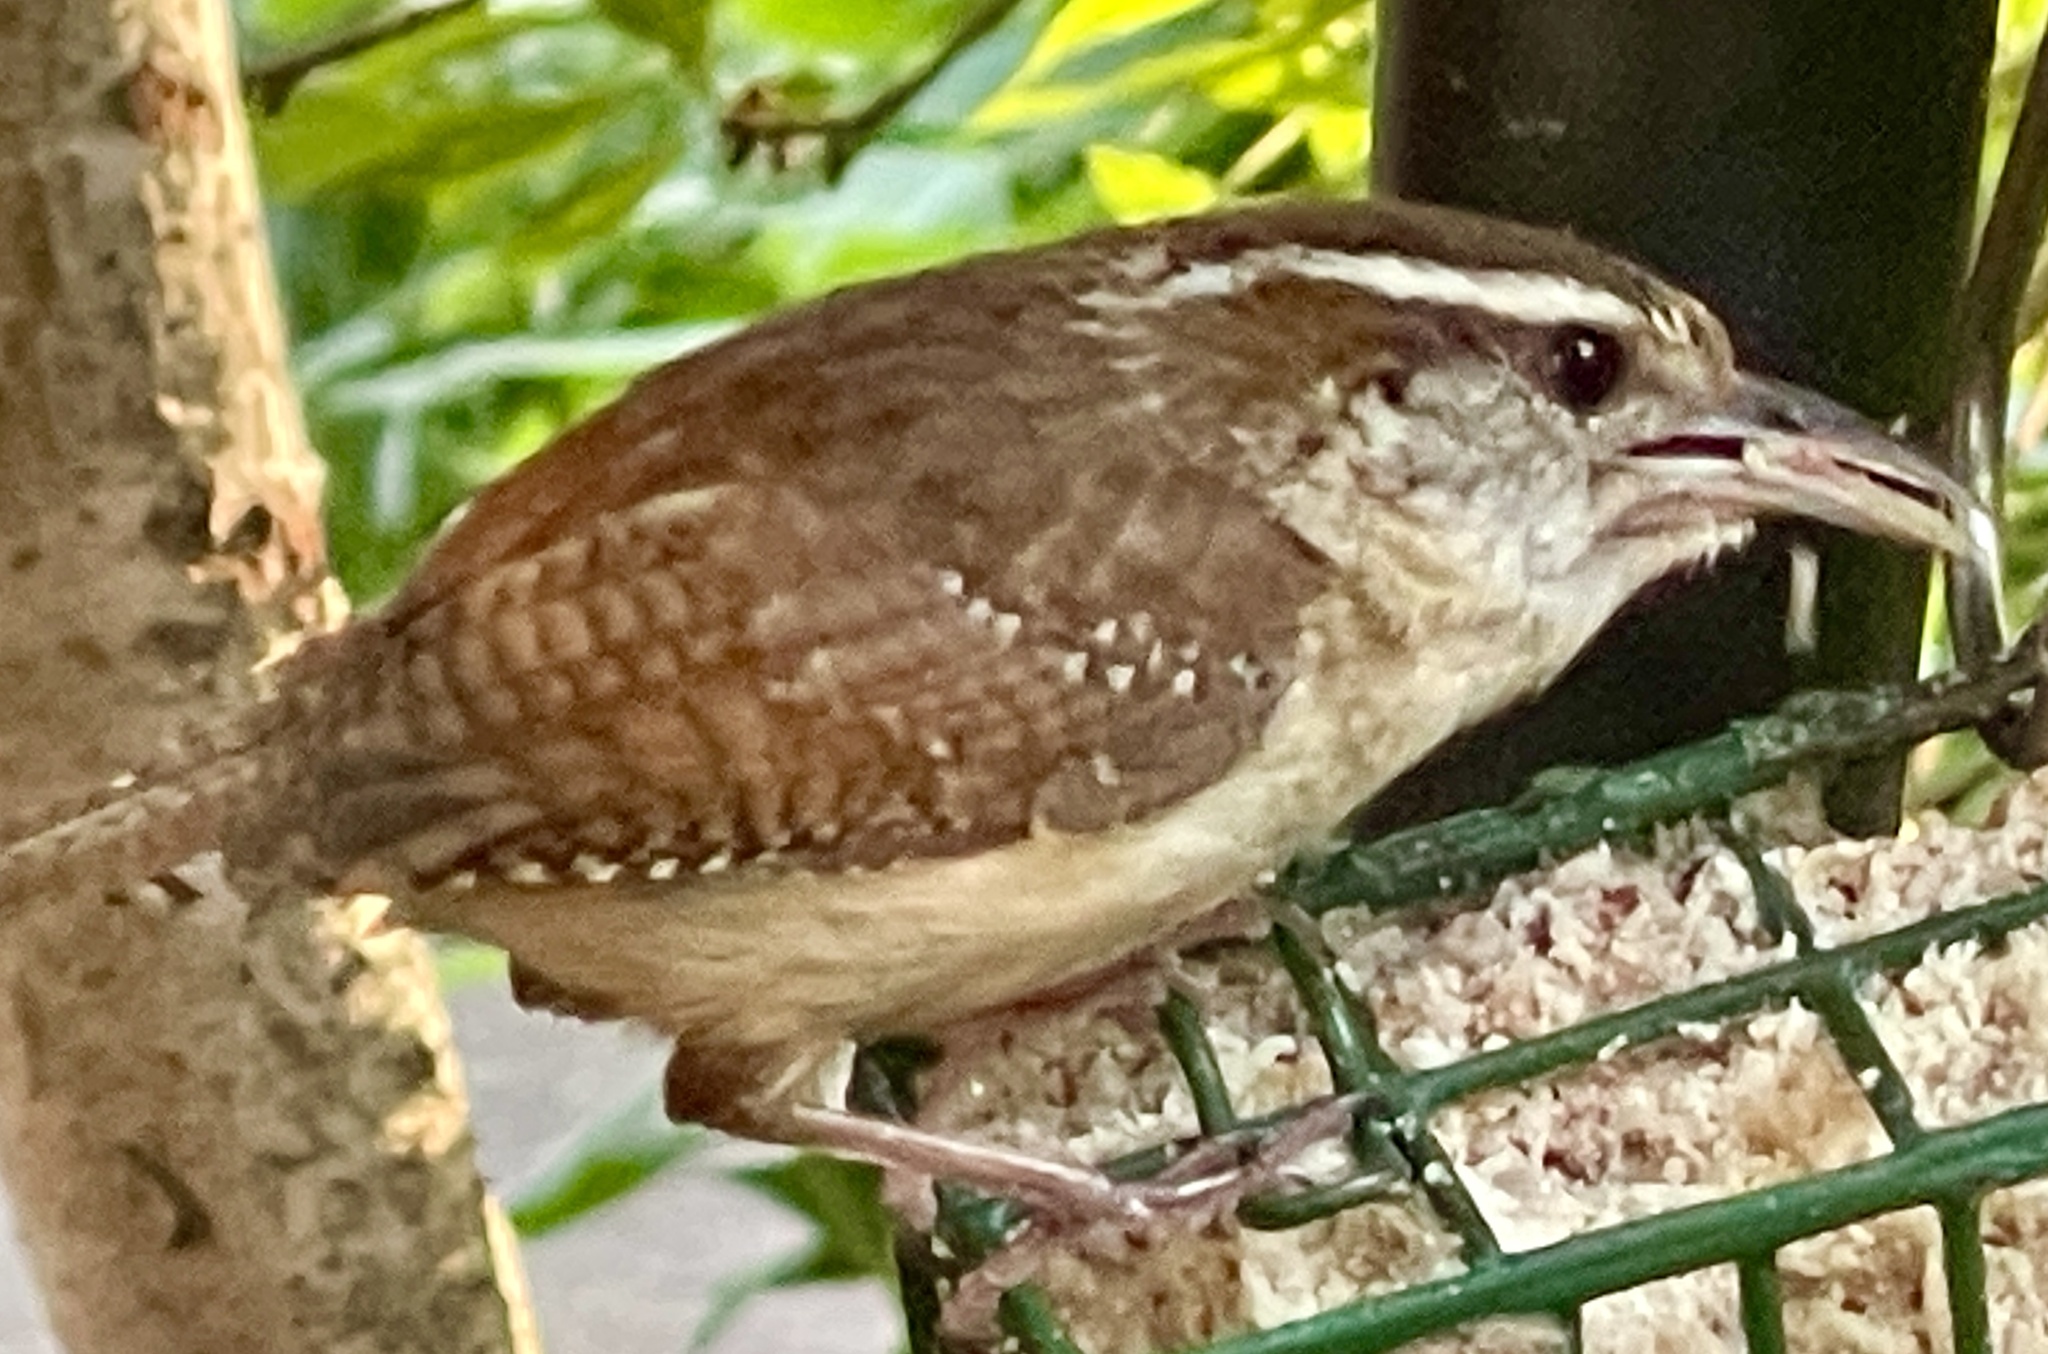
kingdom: Animalia
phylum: Chordata
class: Aves
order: Passeriformes
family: Troglodytidae
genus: Thryothorus
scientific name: Thryothorus ludovicianus
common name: Carolina wren
